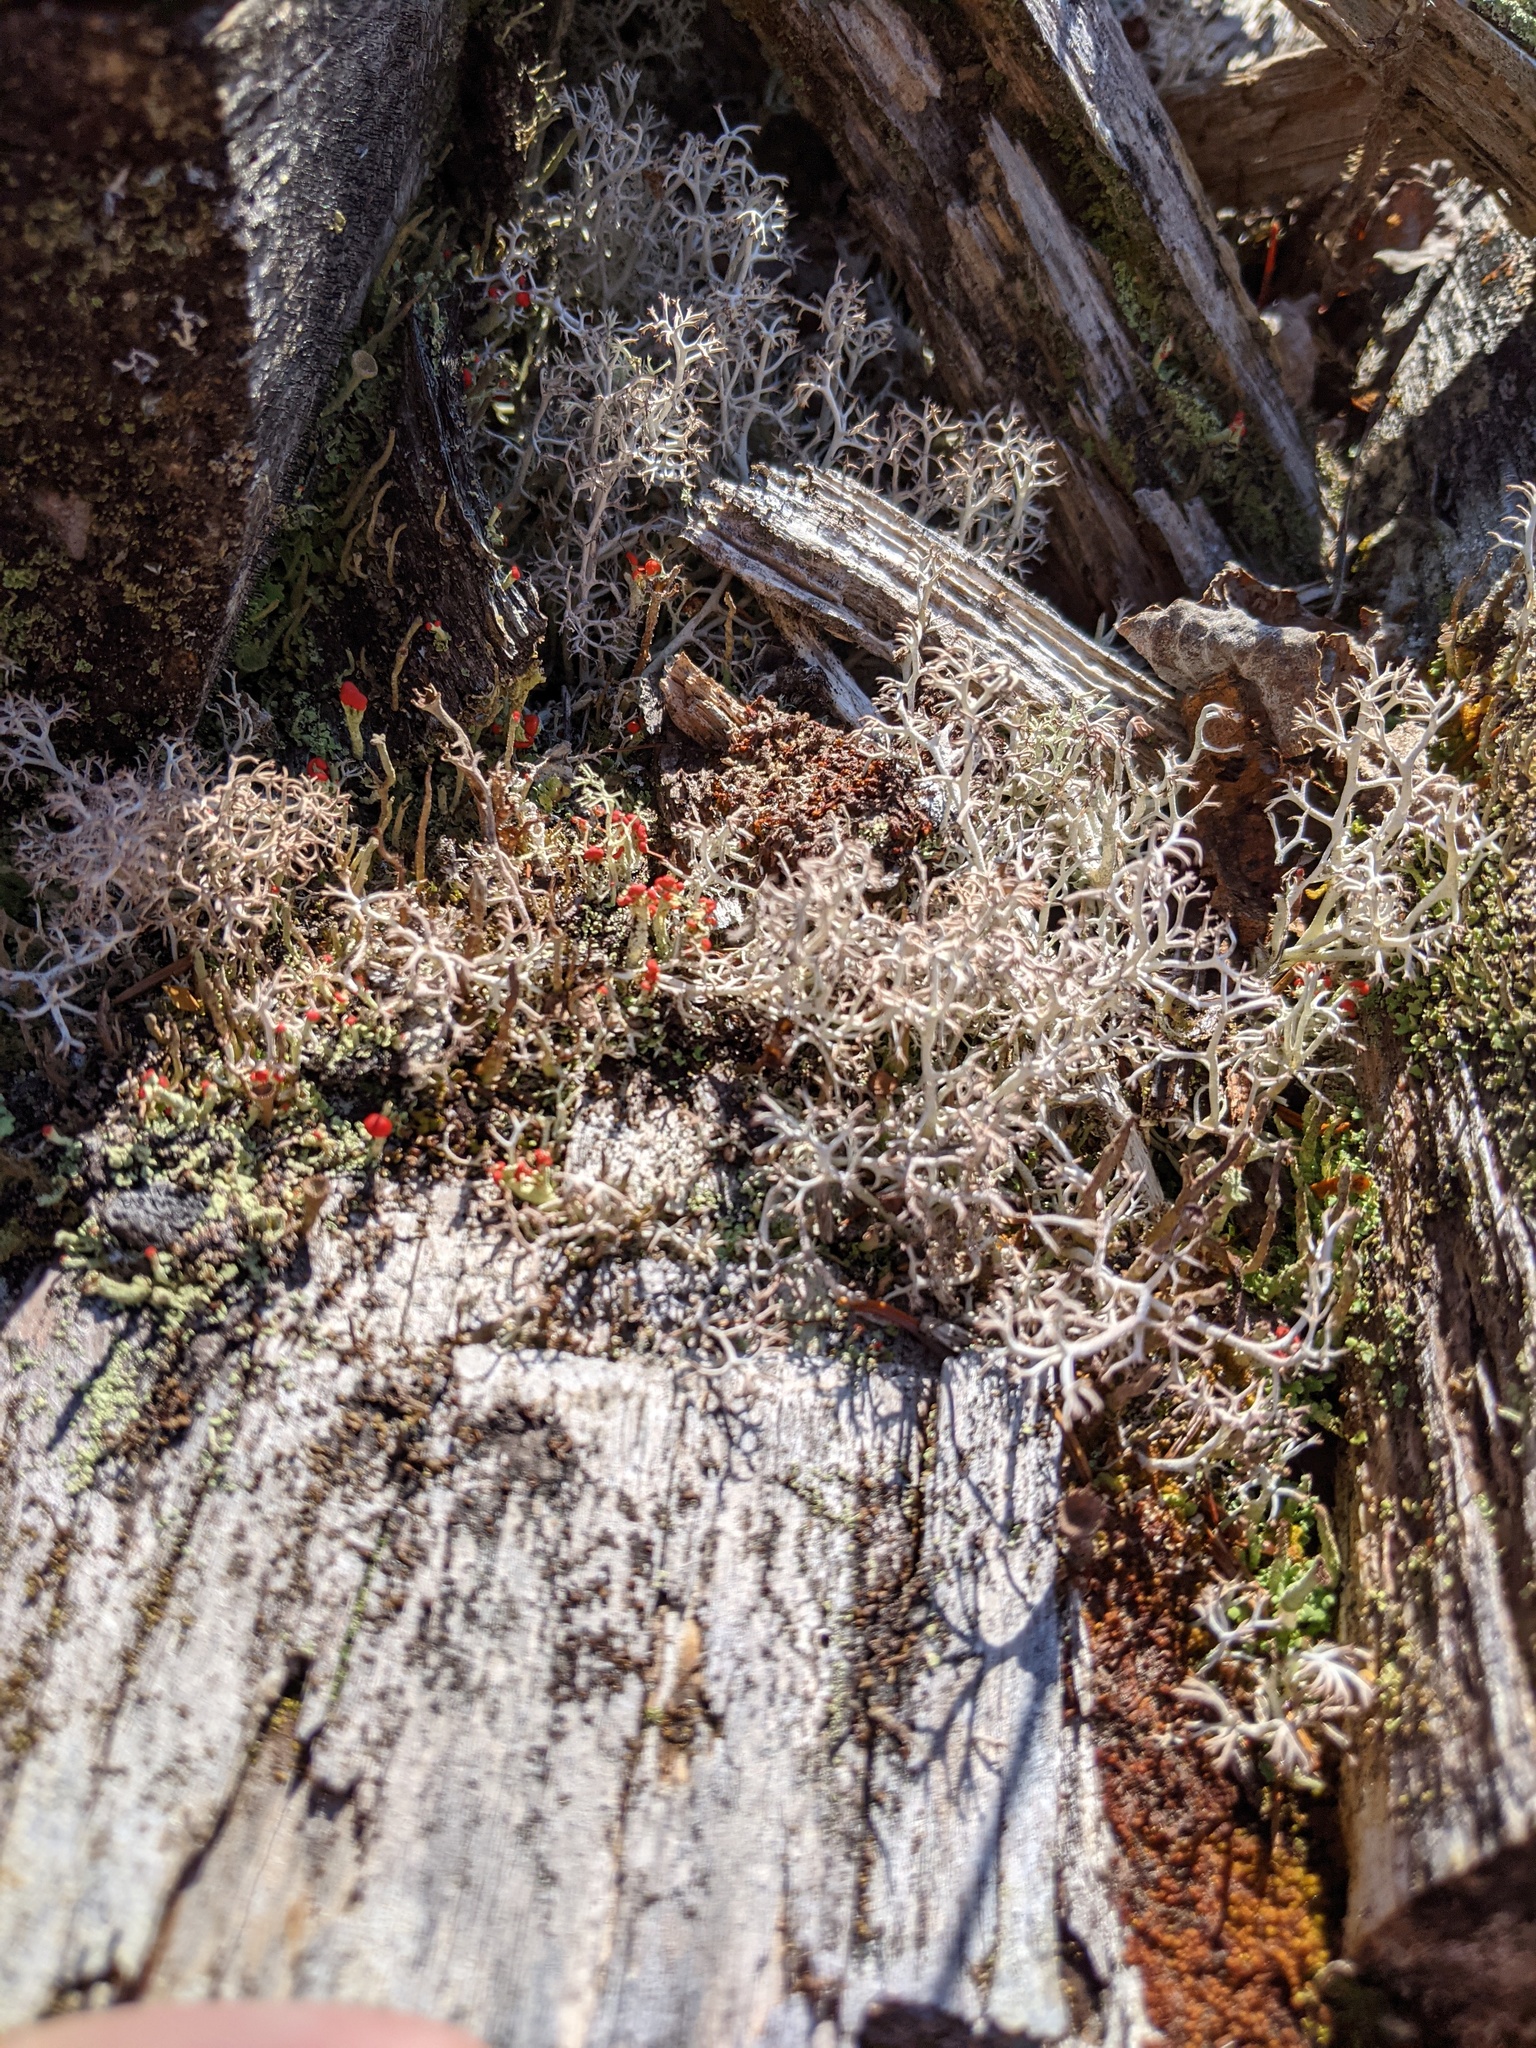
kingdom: Fungi
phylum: Ascomycota
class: Lecanoromycetes
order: Lecanorales
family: Cladoniaceae
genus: Cladonia
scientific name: Cladonia cristatella
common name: British soldier lichen
